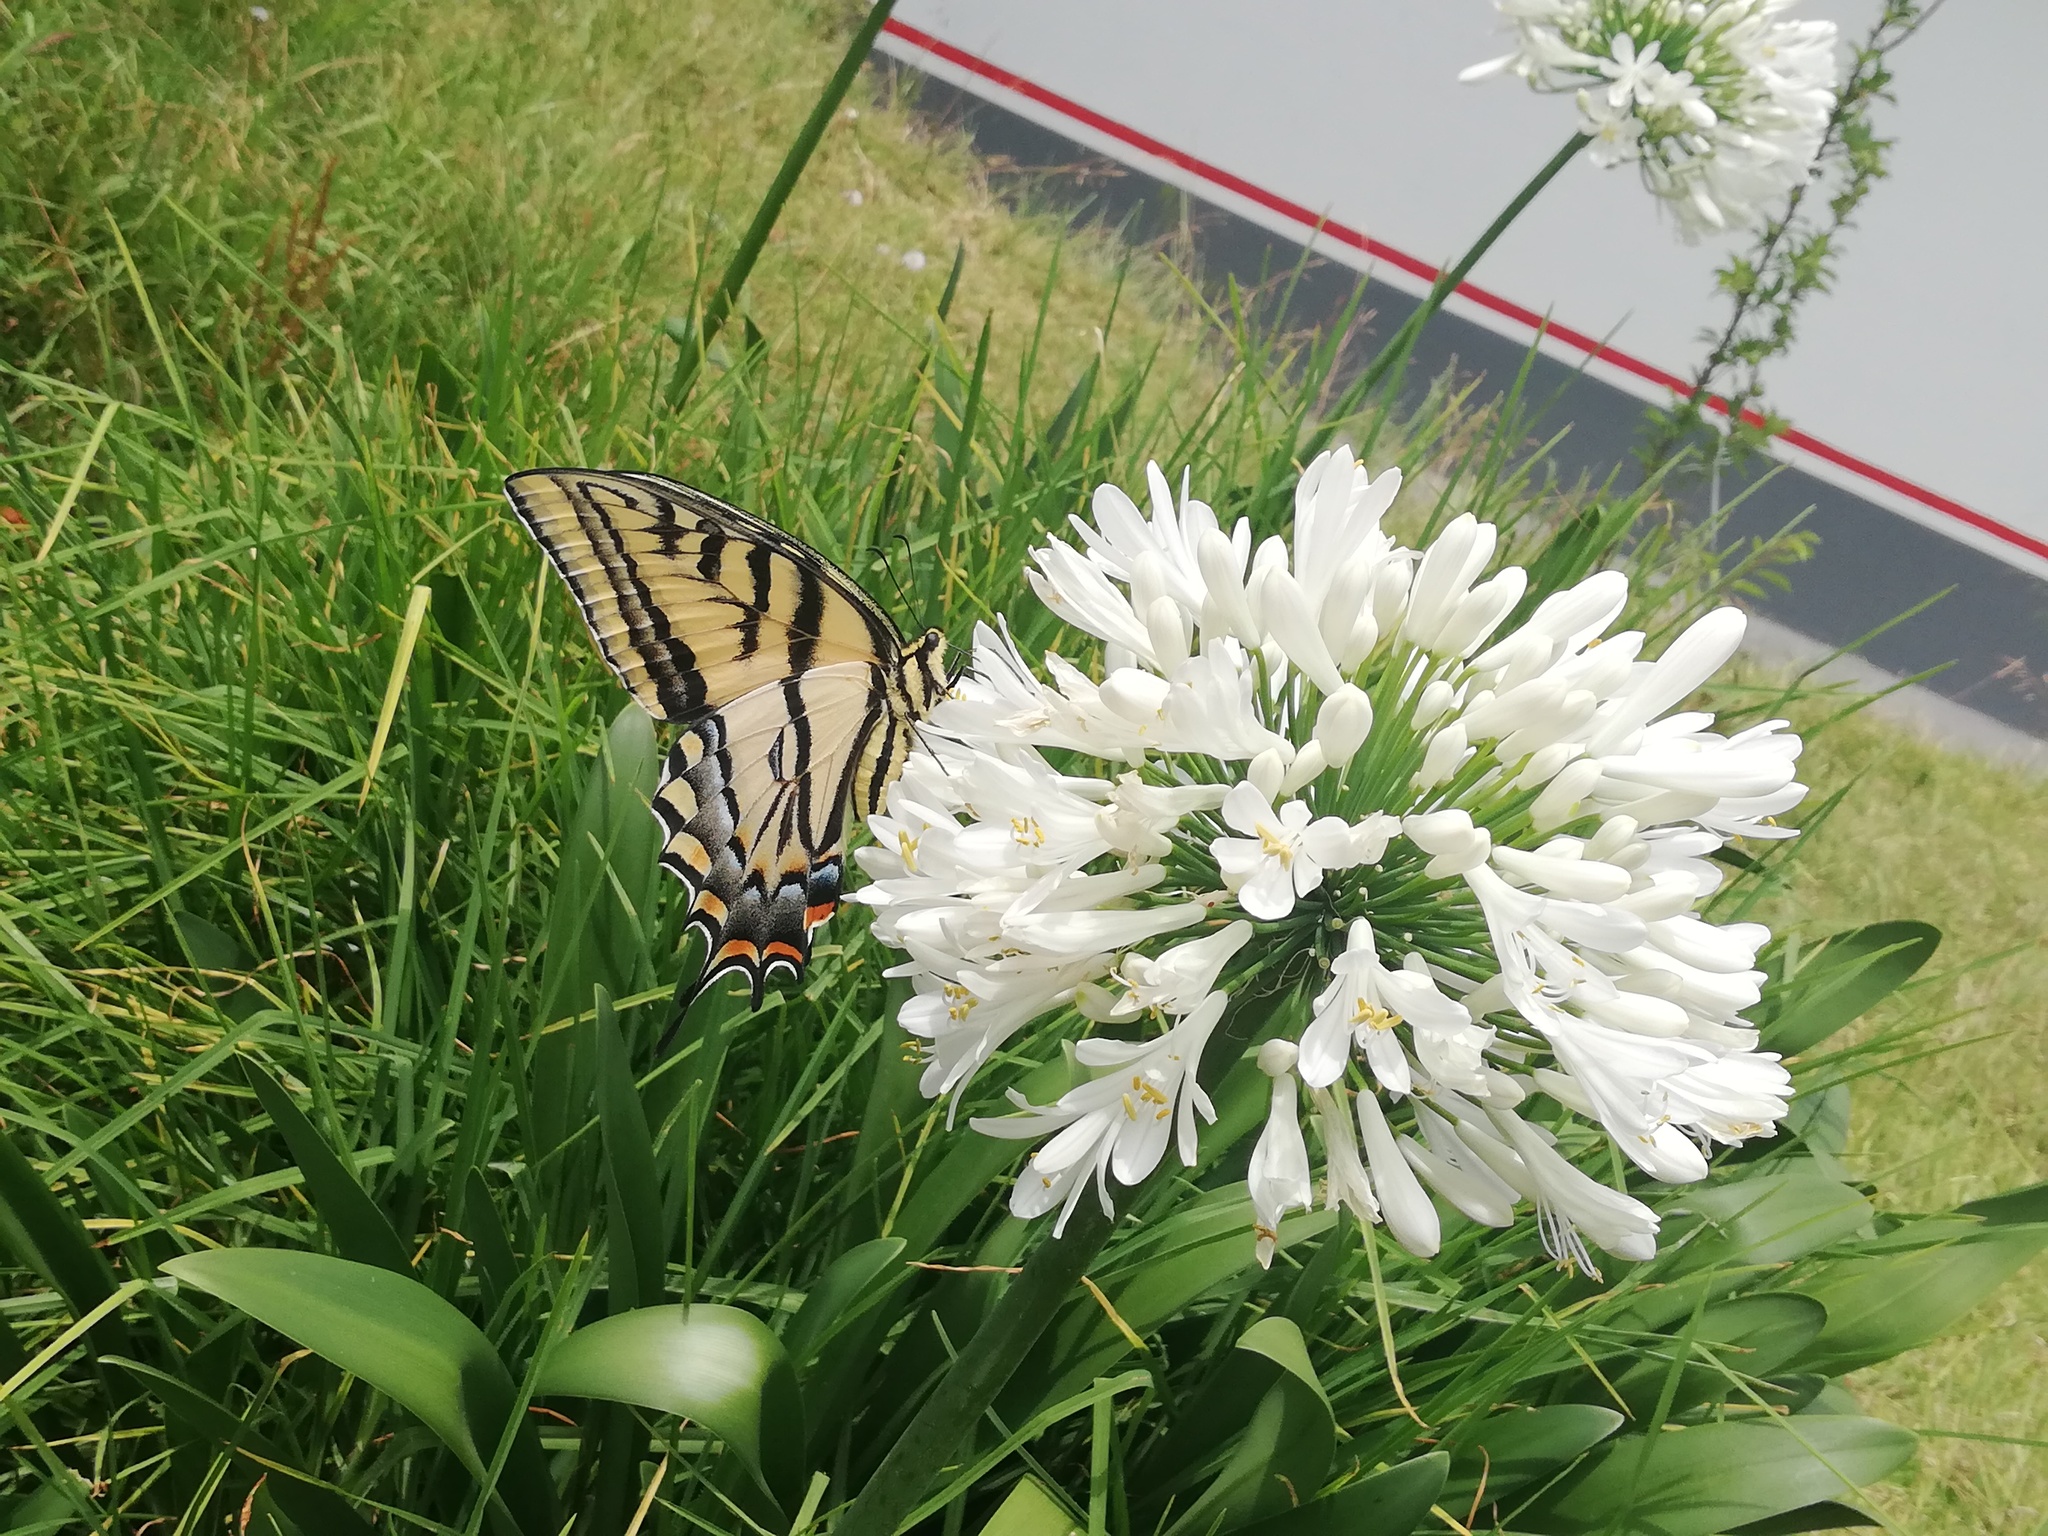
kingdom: Animalia
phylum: Arthropoda
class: Insecta
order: Lepidoptera
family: Papilionidae
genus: Papilio
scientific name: Papilio multicaudata
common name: Two-tailed tiger swallowtail
